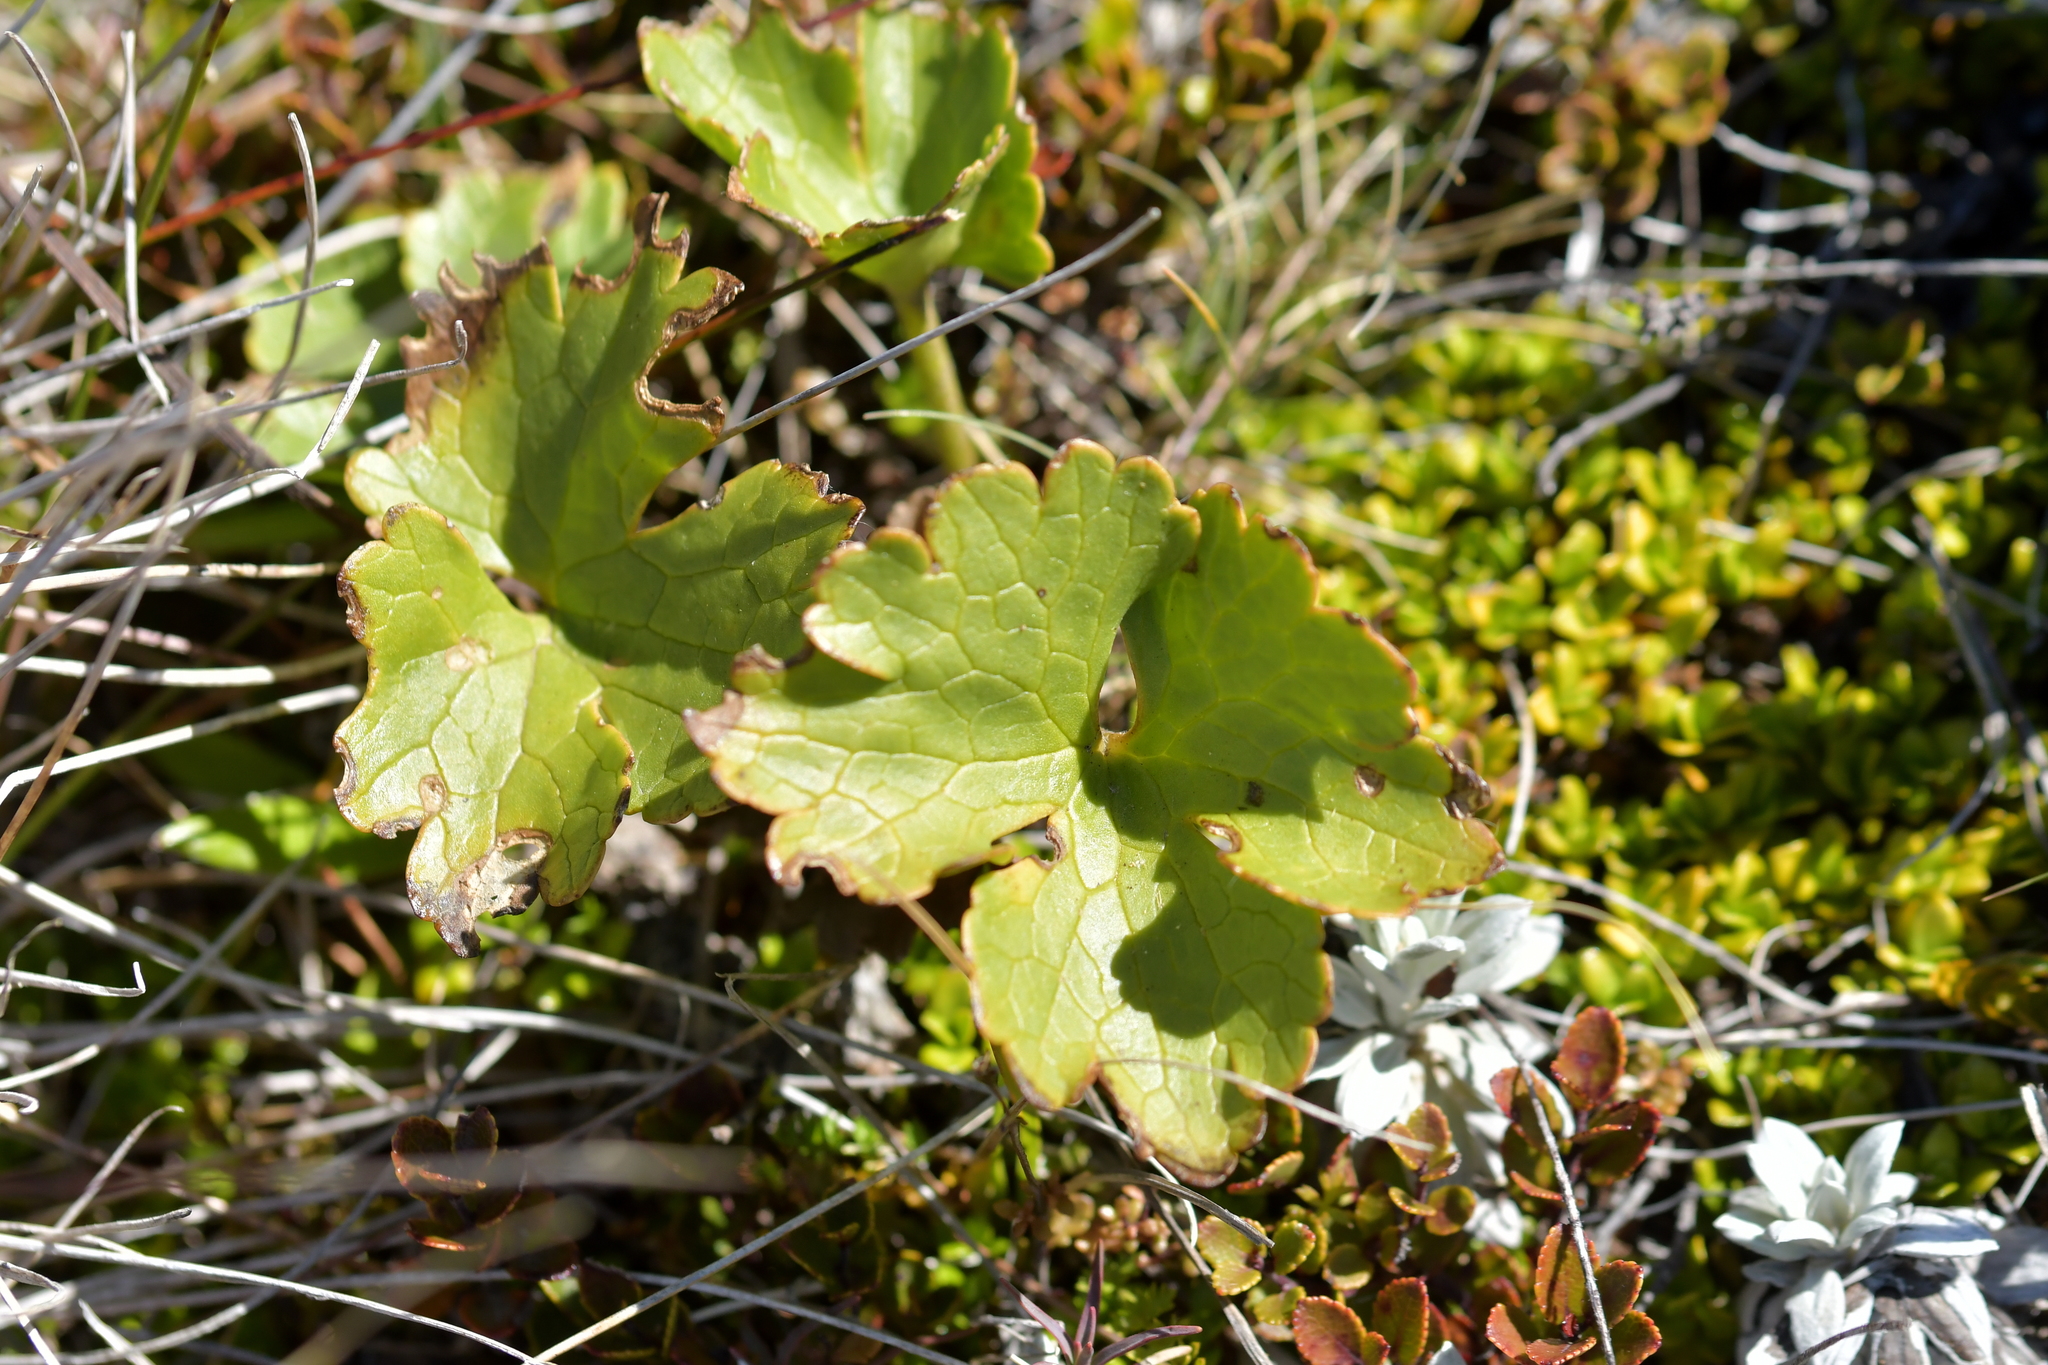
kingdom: Plantae
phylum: Tracheophyta
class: Magnoliopsida
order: Ranunculales
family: Ranunculaceae
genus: Ranunculus
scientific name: Ranunculus nivicola
